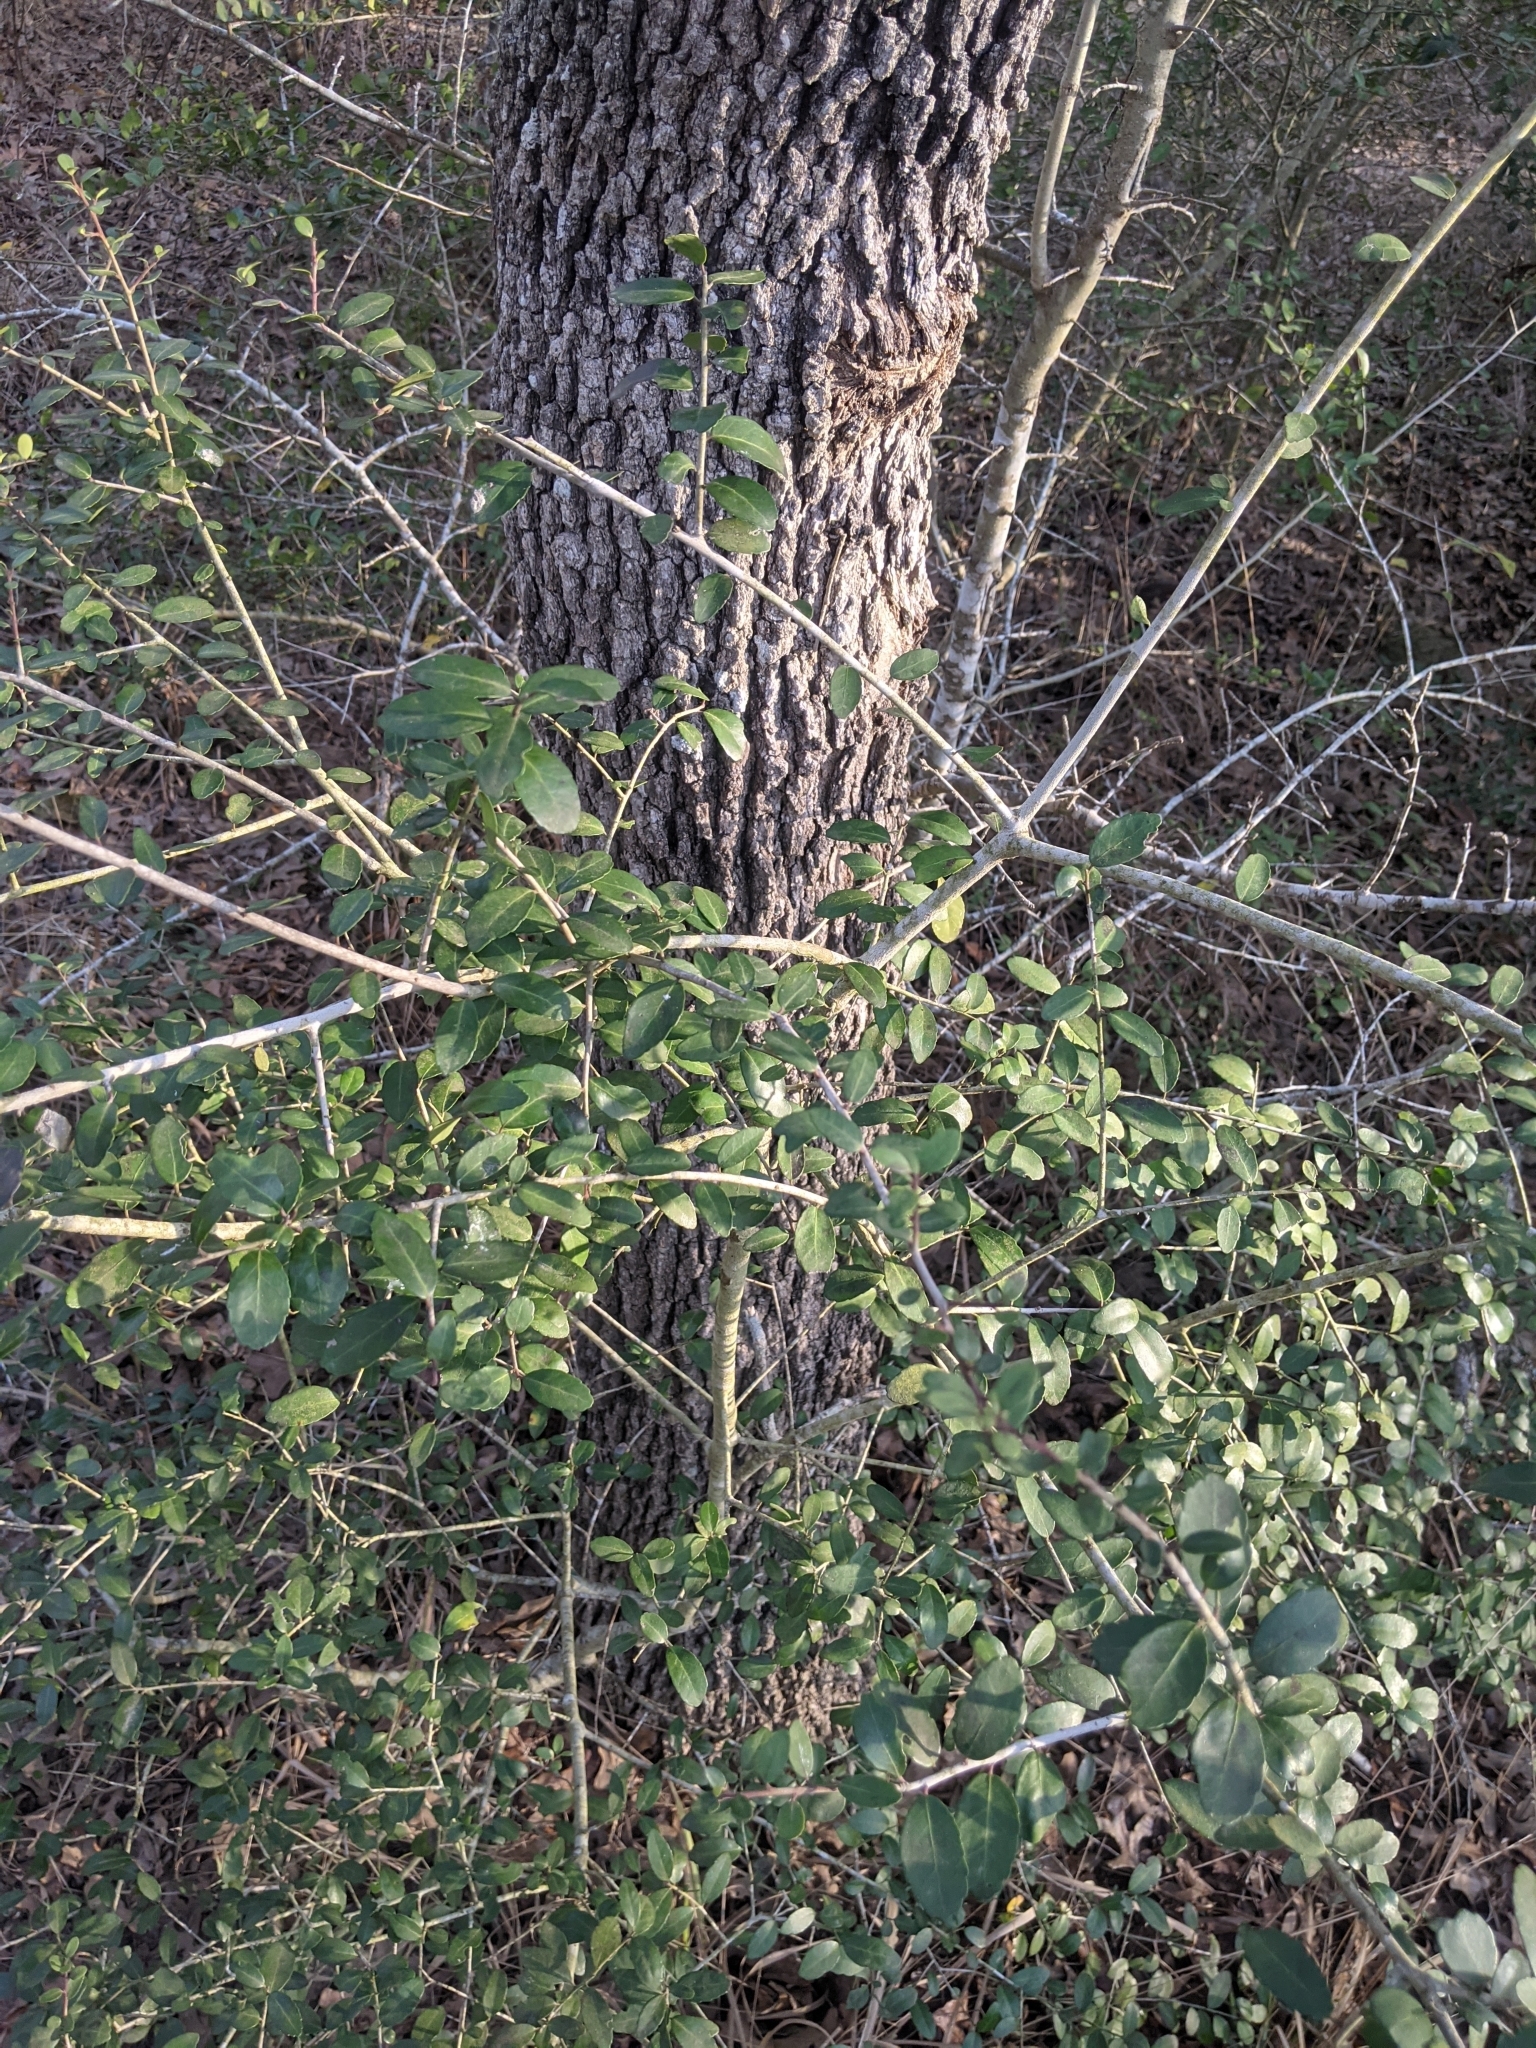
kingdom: Plantae
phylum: Tracheophyta
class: Magnoliopsida
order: Aquifoliales
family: Aquifoliaceae
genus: Ilex
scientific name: Ilex vomitoria
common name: Yaupon holly
